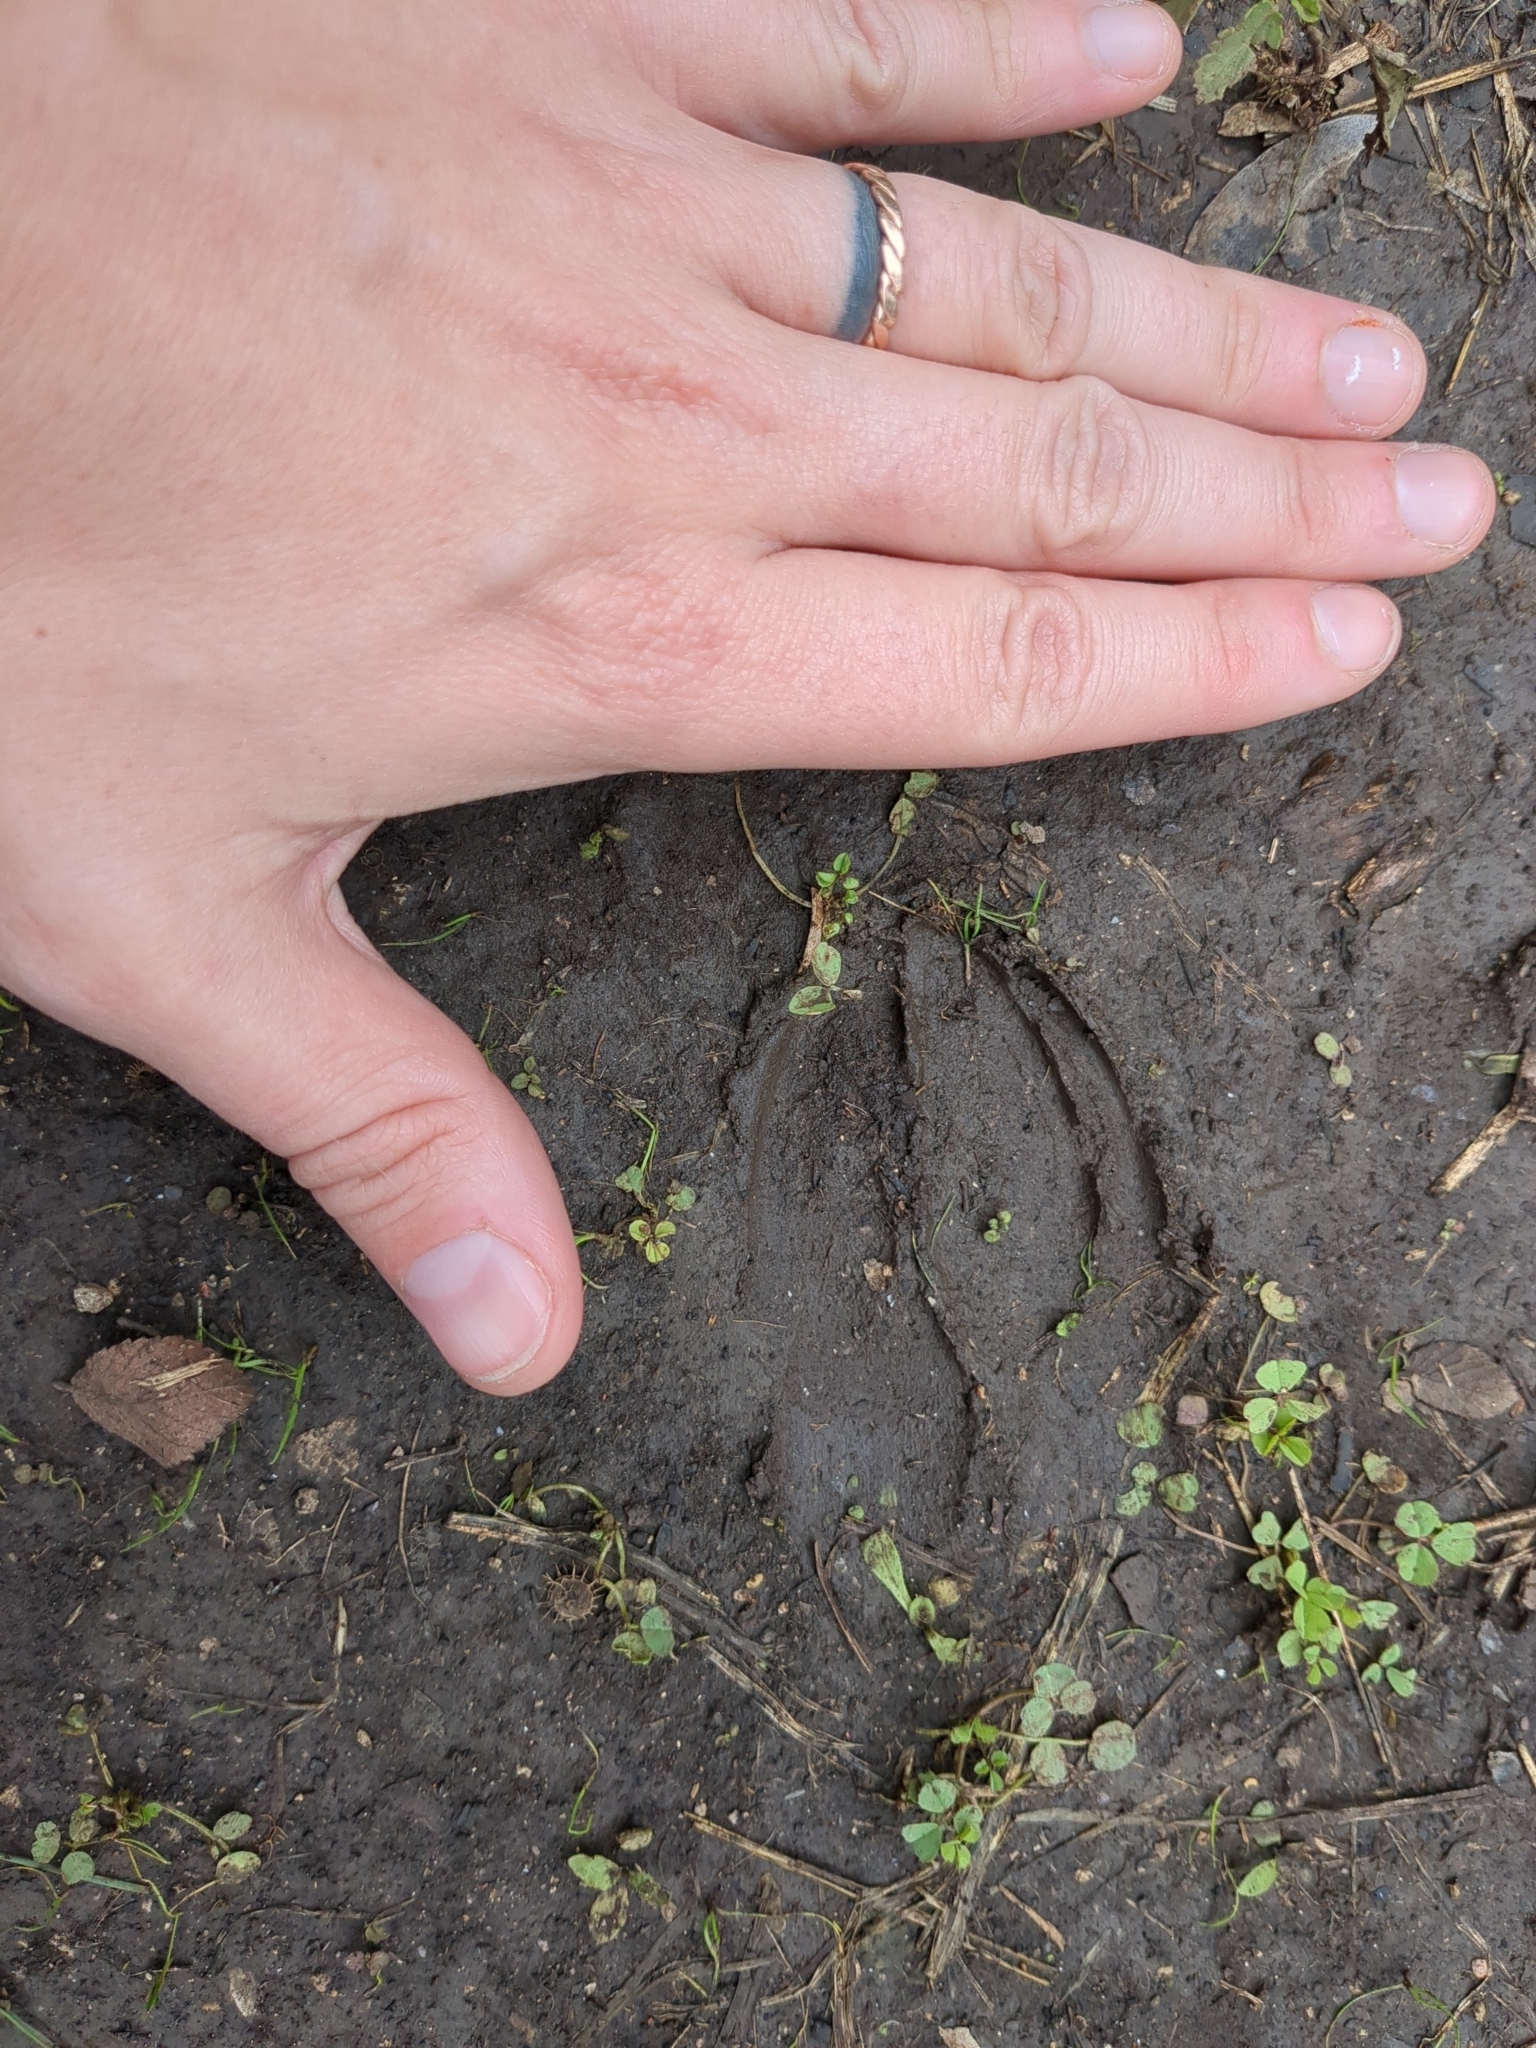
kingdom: Animalia
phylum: Chordata
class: Mammalia
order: Artiodactyla
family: Cervidae
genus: Odocoileus
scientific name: Odocoileus virginianus
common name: White-tailed deer
